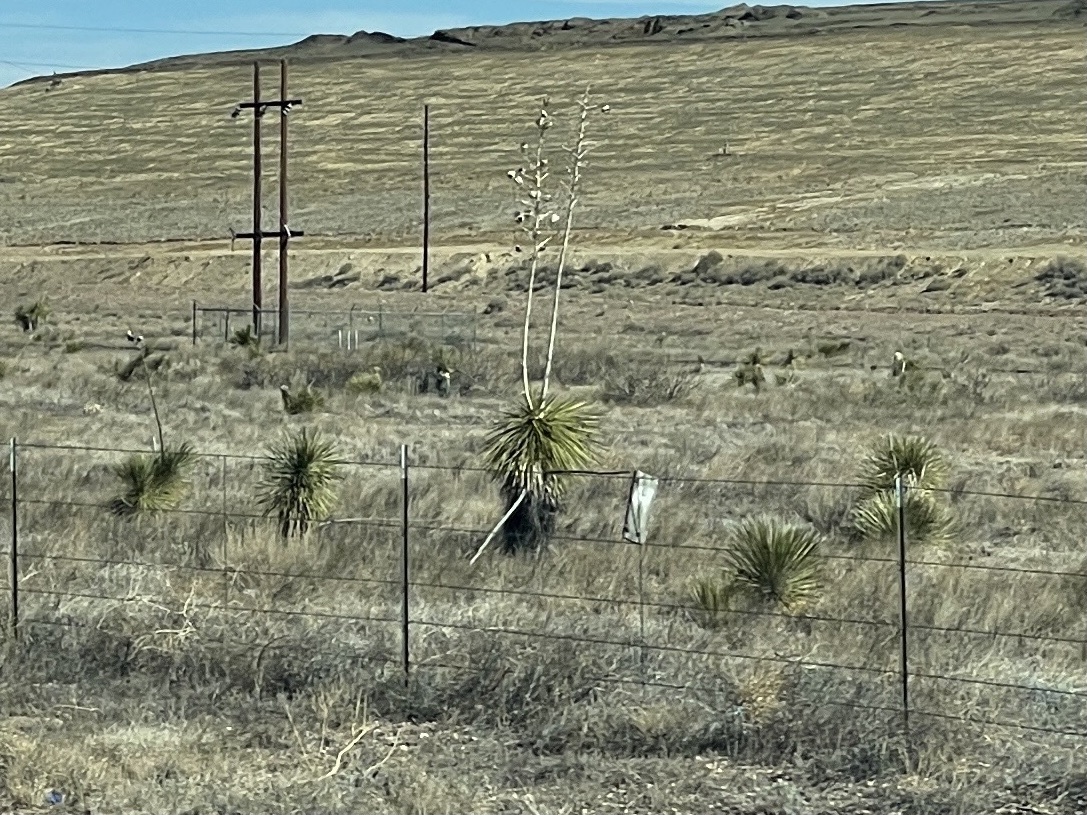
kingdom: Plantae
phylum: Tracheophyta
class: Liliopsida
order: Asparagales
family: Asparagaceae
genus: Yucca
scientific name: Yucca elata
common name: Palmella
